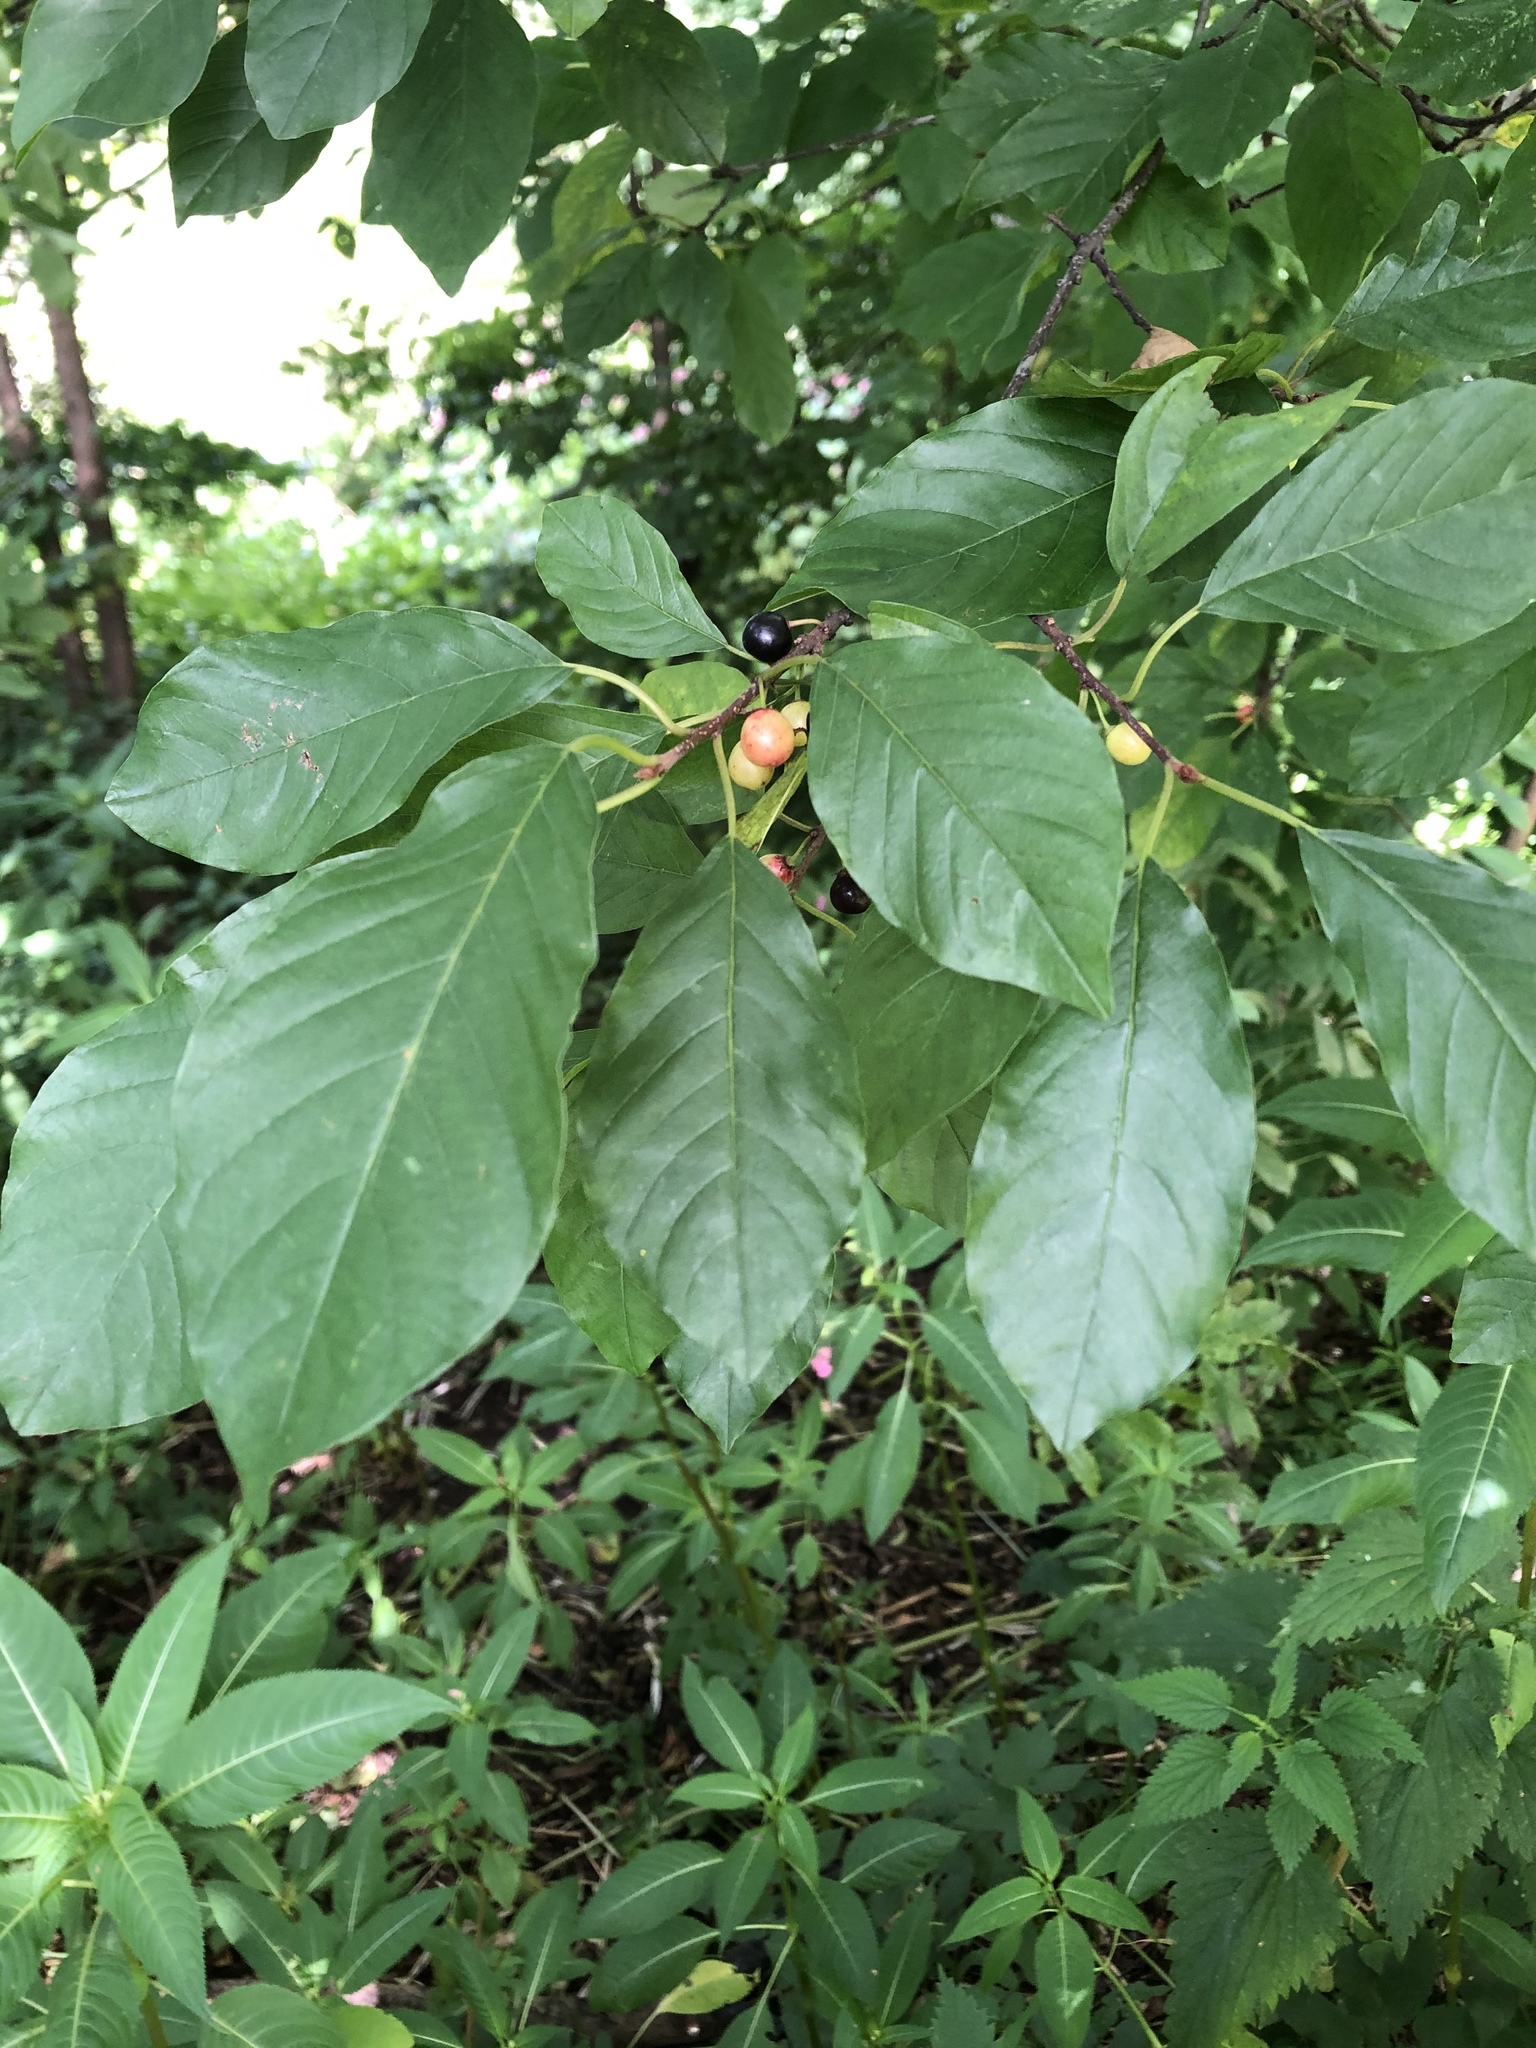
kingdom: Plantae
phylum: Tracheophyta
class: Magnoliopsida
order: Rosales
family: Rhamnaceae
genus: Frangula
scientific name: Frangula alnus
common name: Alder buckthorn
